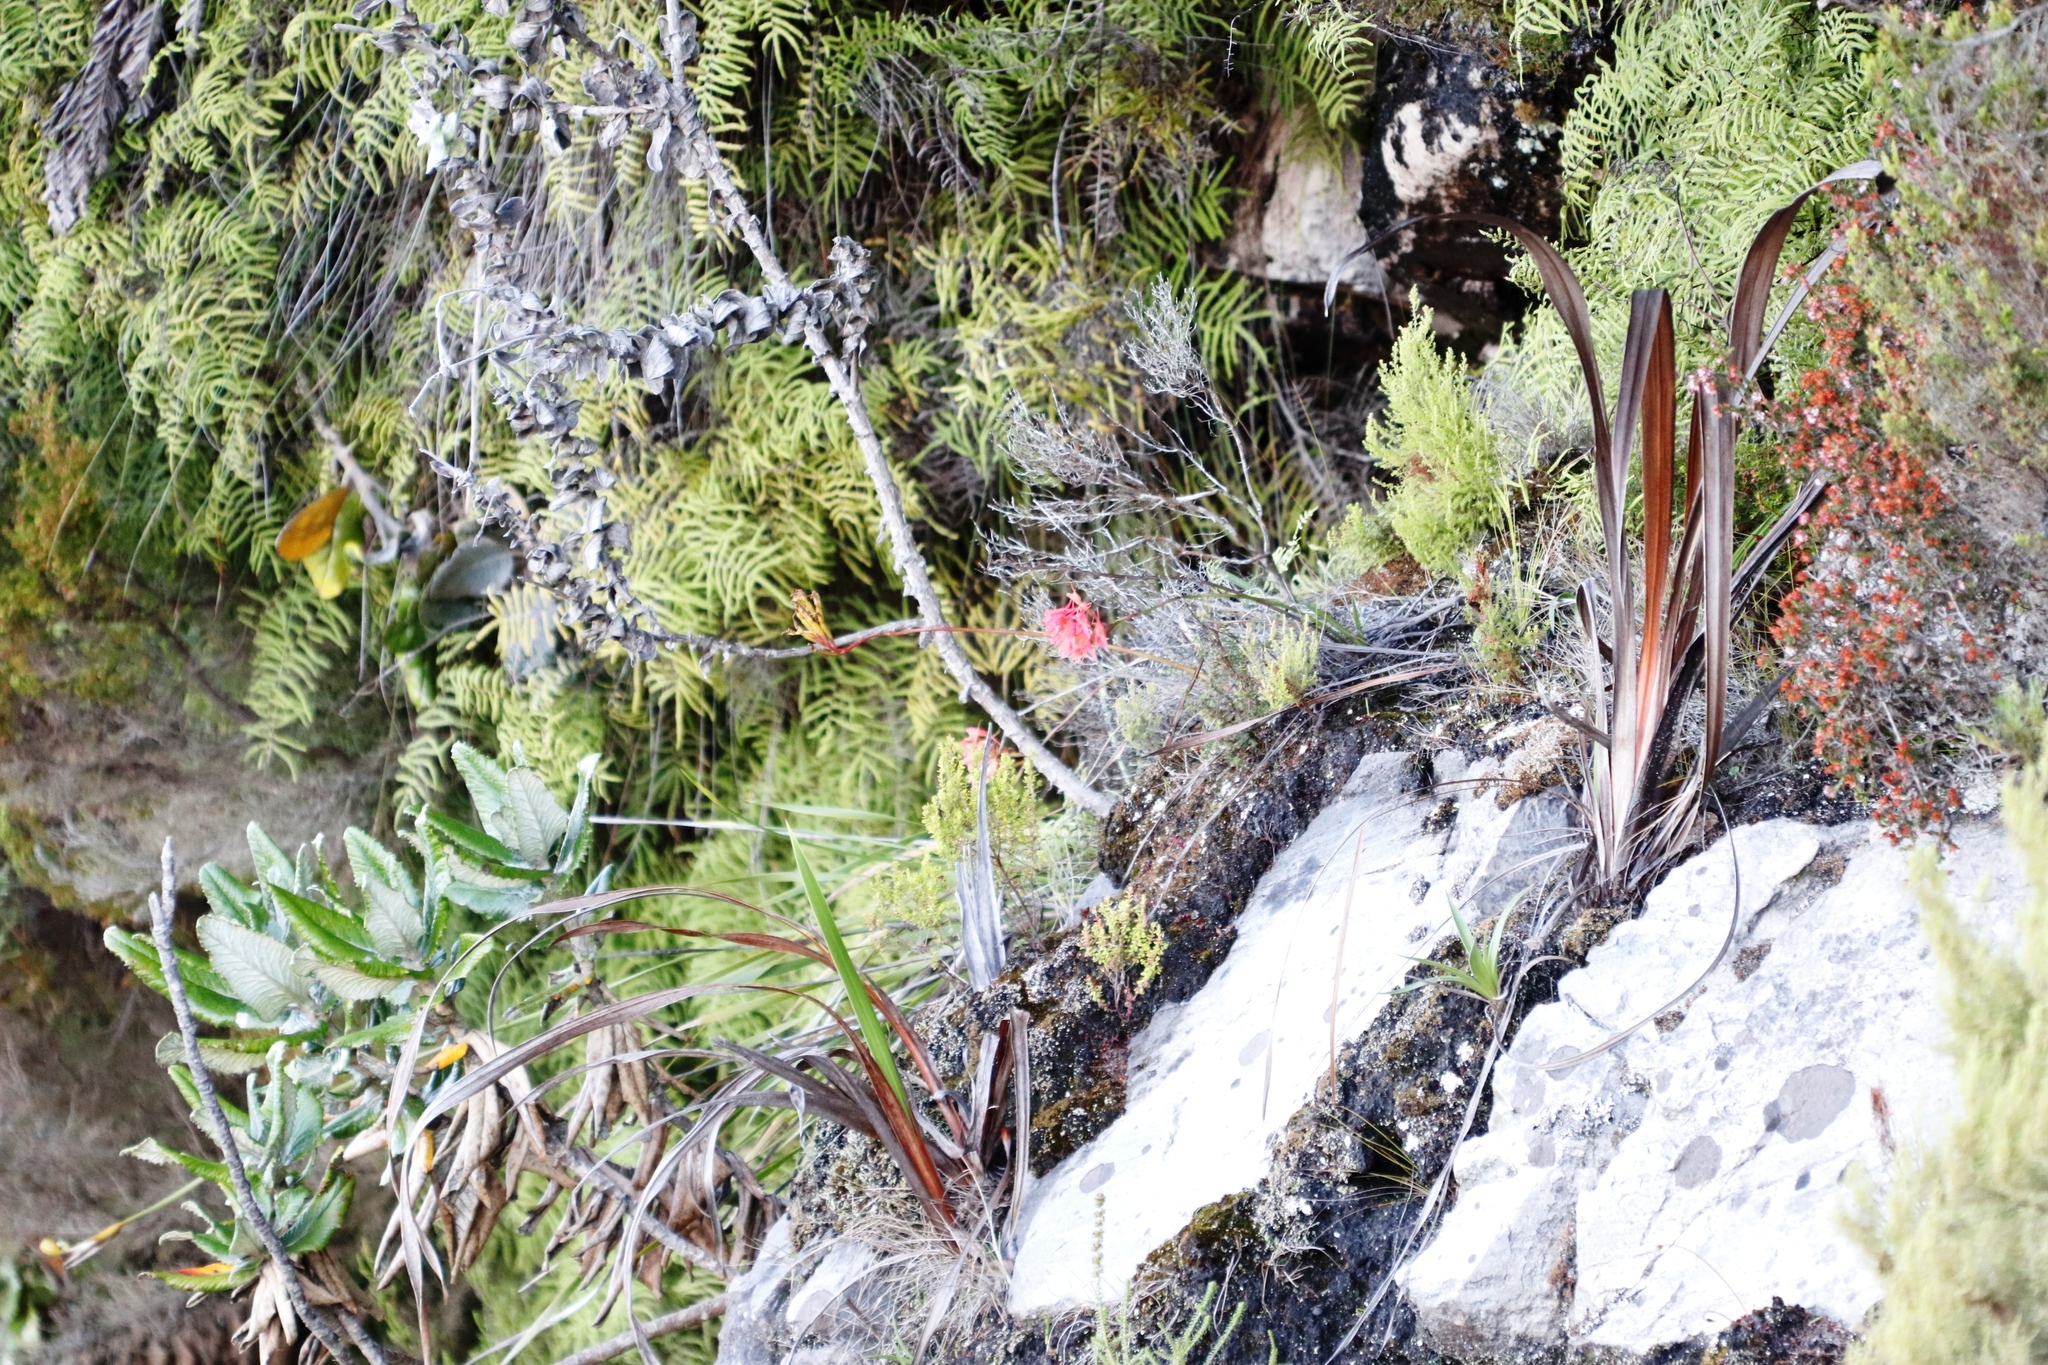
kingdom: Plantae
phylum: Tracheophyta
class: Liliopsida
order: Asparagales
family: Orchidaceae
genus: Disa
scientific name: Disa ferruginea
